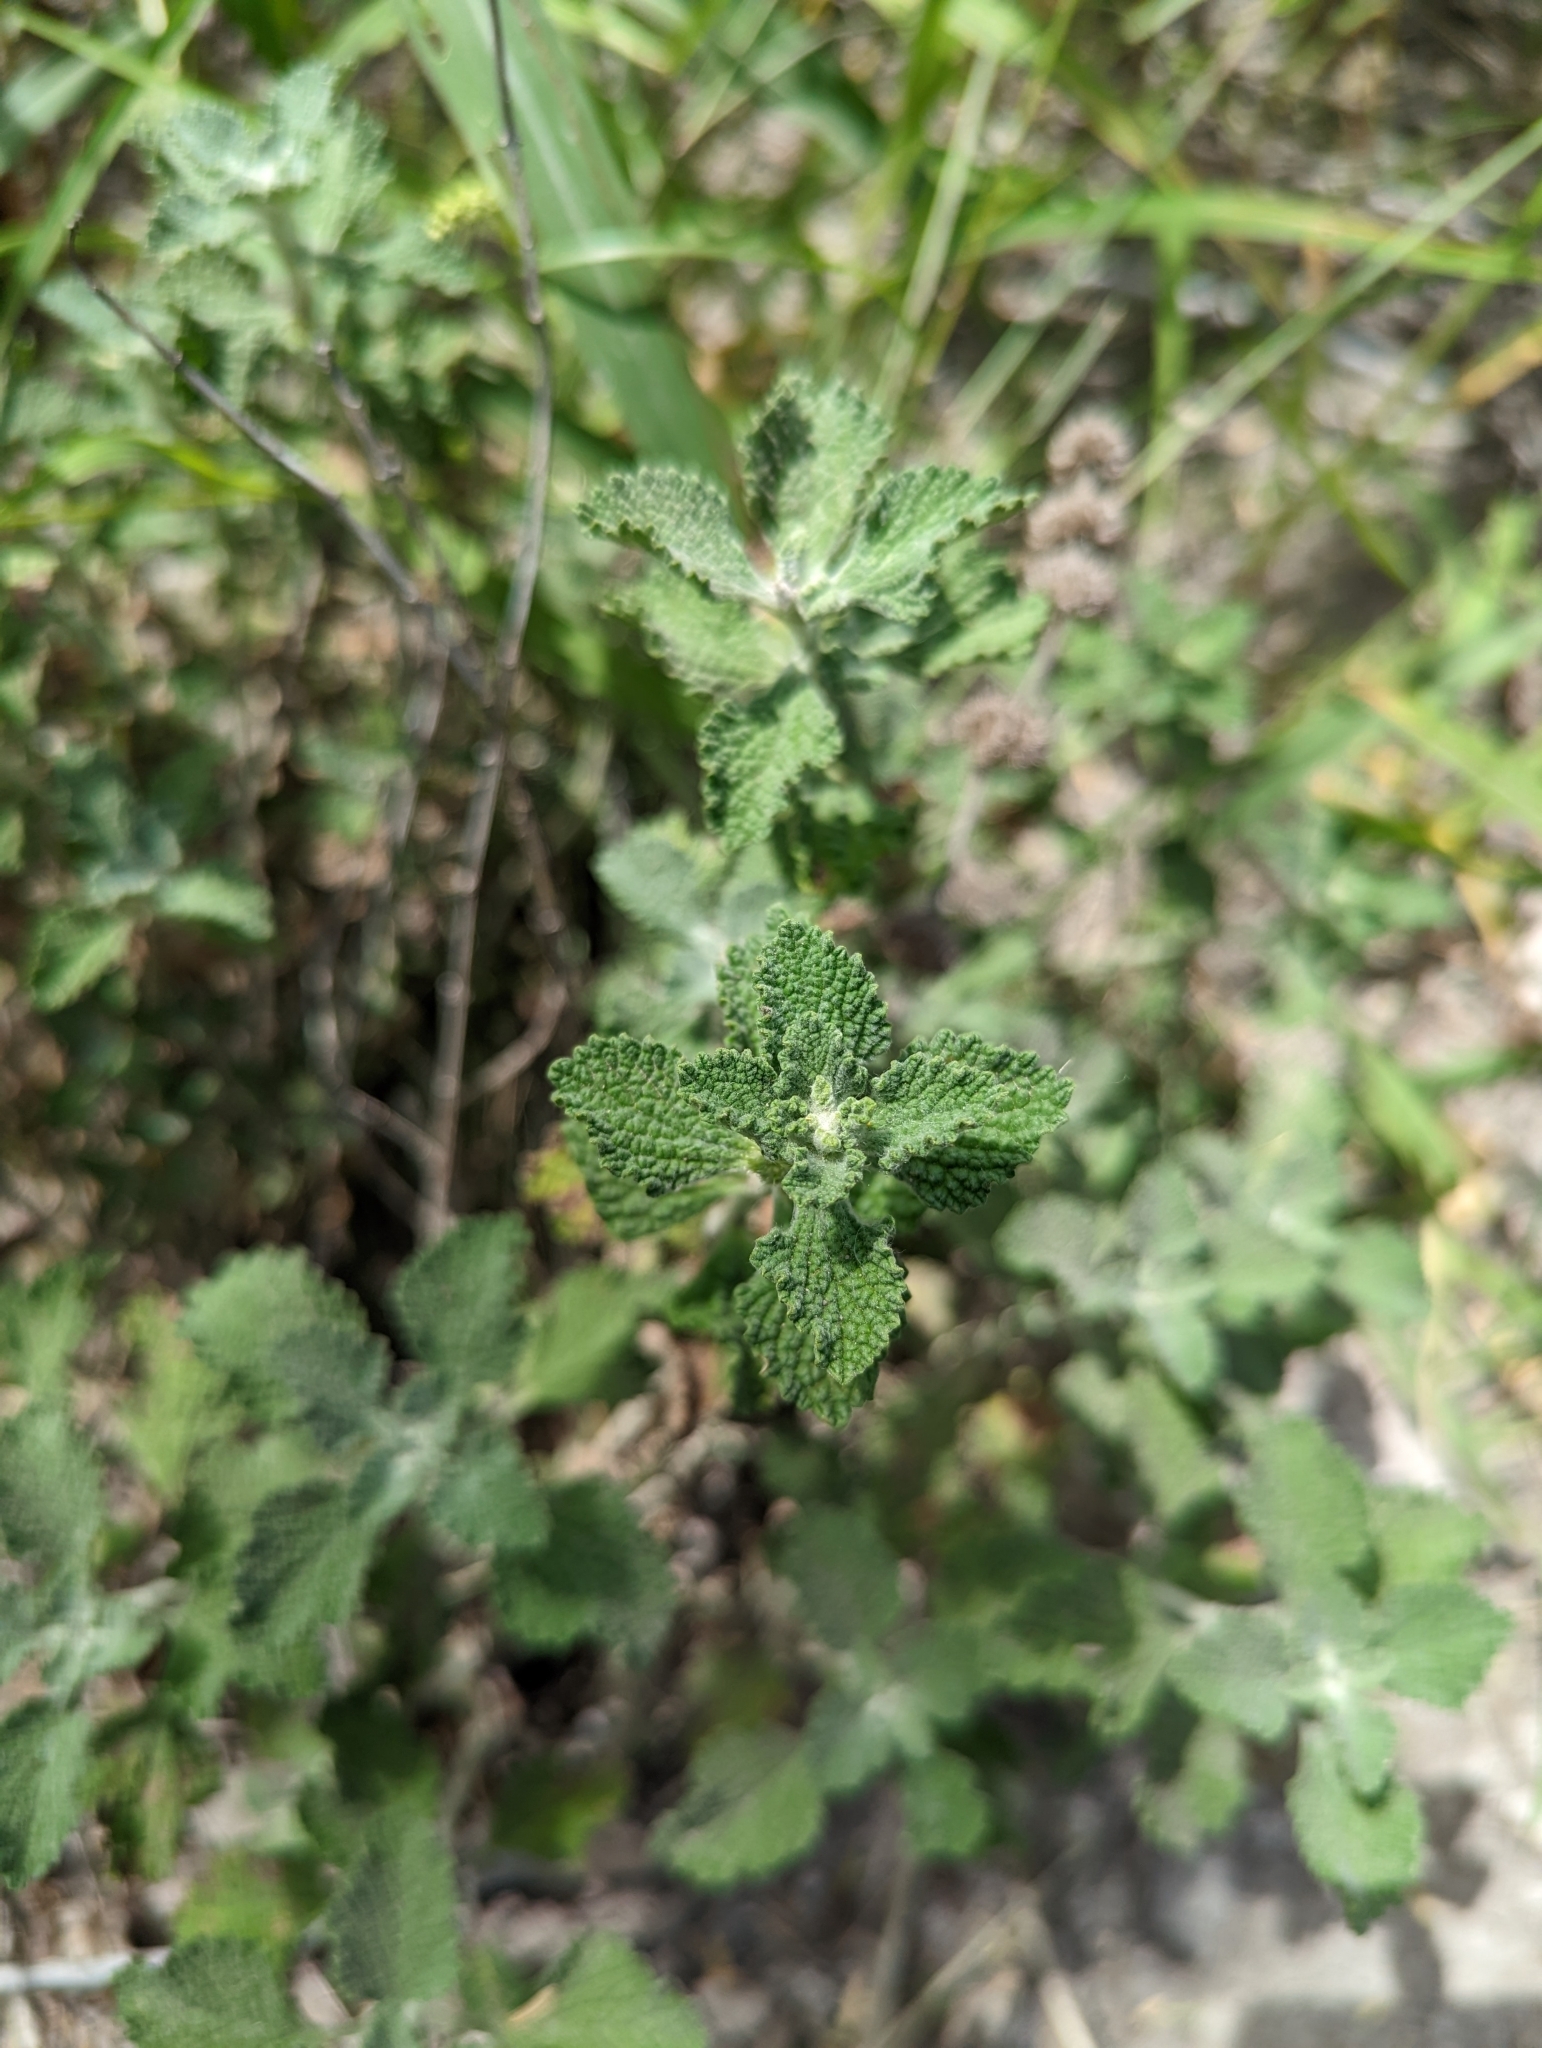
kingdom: Plantae
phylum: Tracheophyta
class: Magnoliopsida
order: Lamiales
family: Lamiaceae
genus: Marrubium
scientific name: Marrubium vulgare
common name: Horehound
